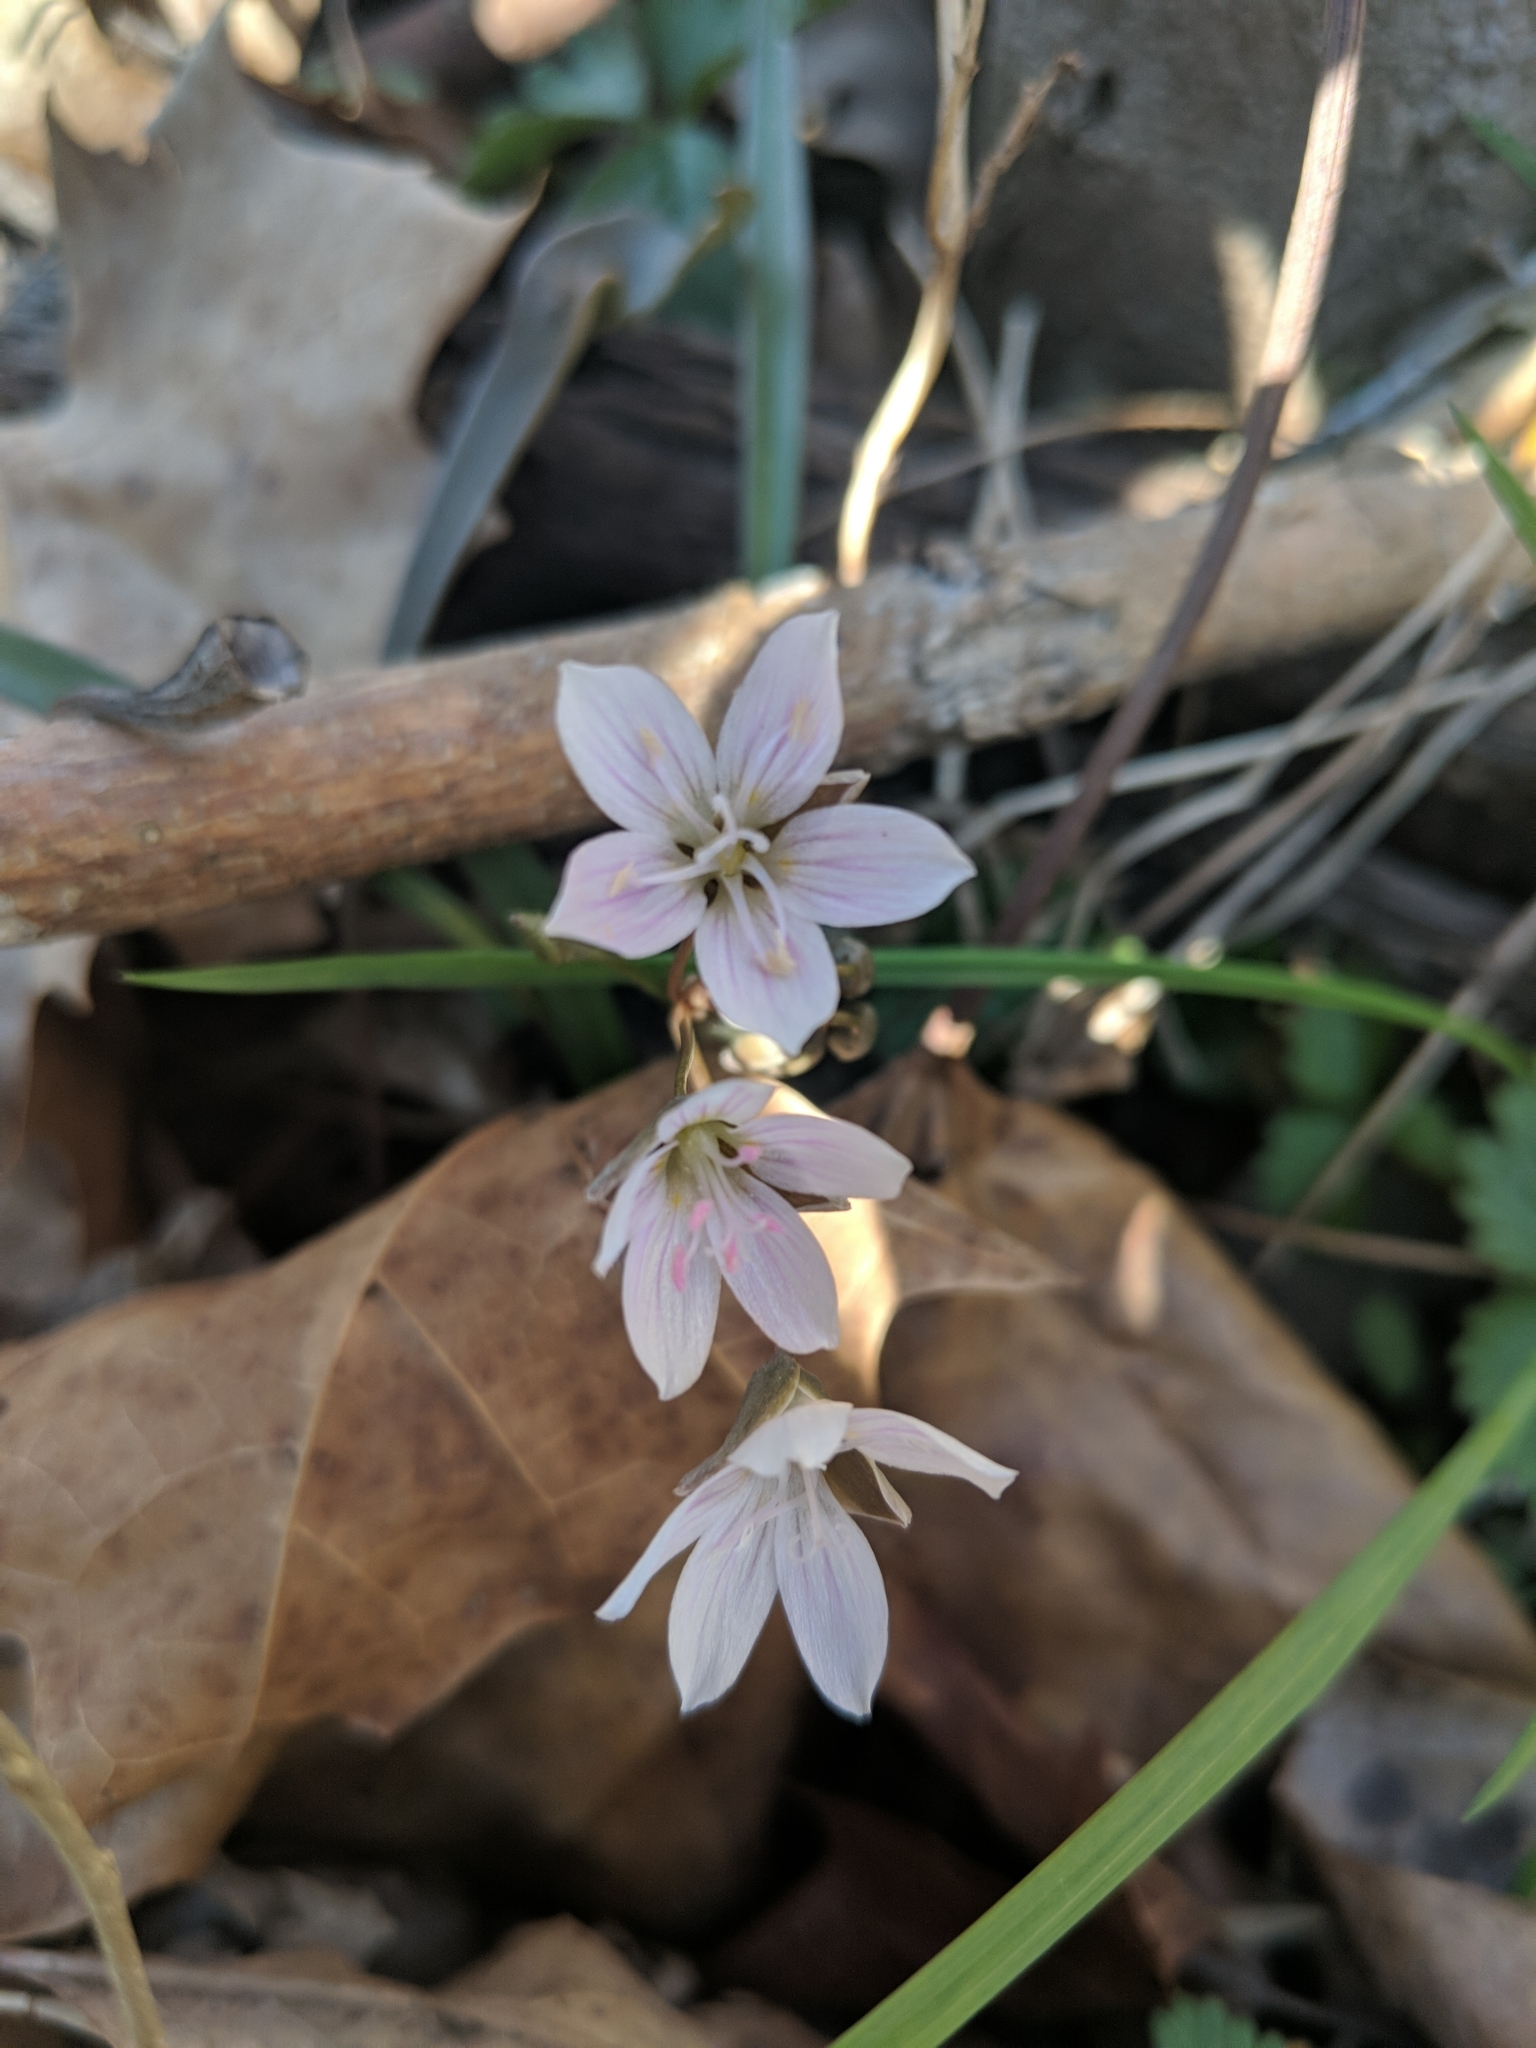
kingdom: Plantae
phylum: Tracheophyta
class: Magnoliopsida
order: Caryophyllales
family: Montiaceae
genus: Claytonia
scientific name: Claytonia virginica
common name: Virginia springbeauty
